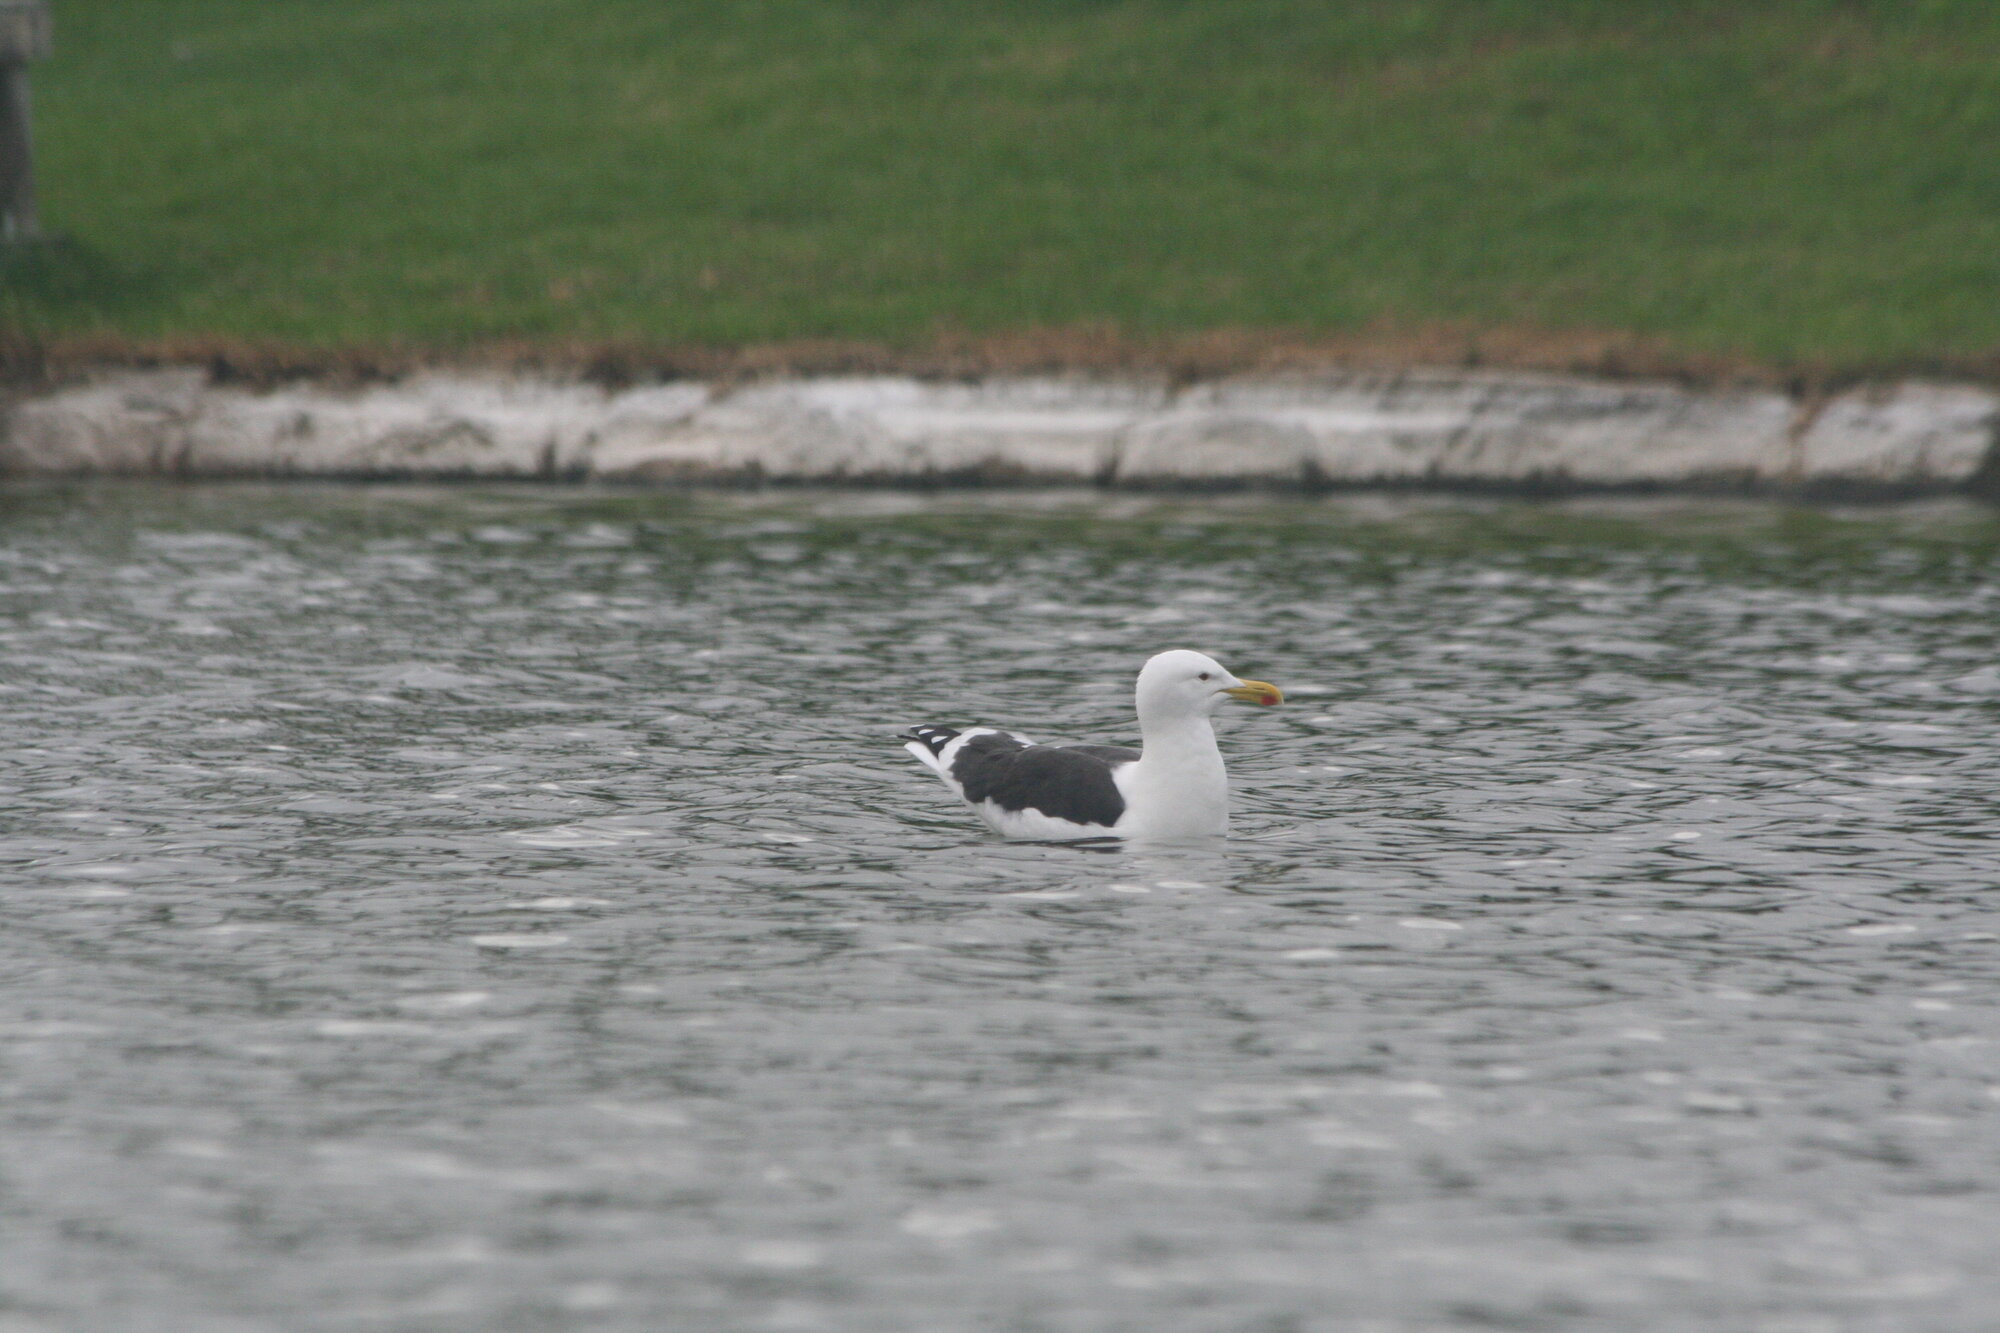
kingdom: Animalia
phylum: Chordata
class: Aves
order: Charadriiformes
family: Laridae
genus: Larus
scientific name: Larus dominicanus
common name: Kelp gull
